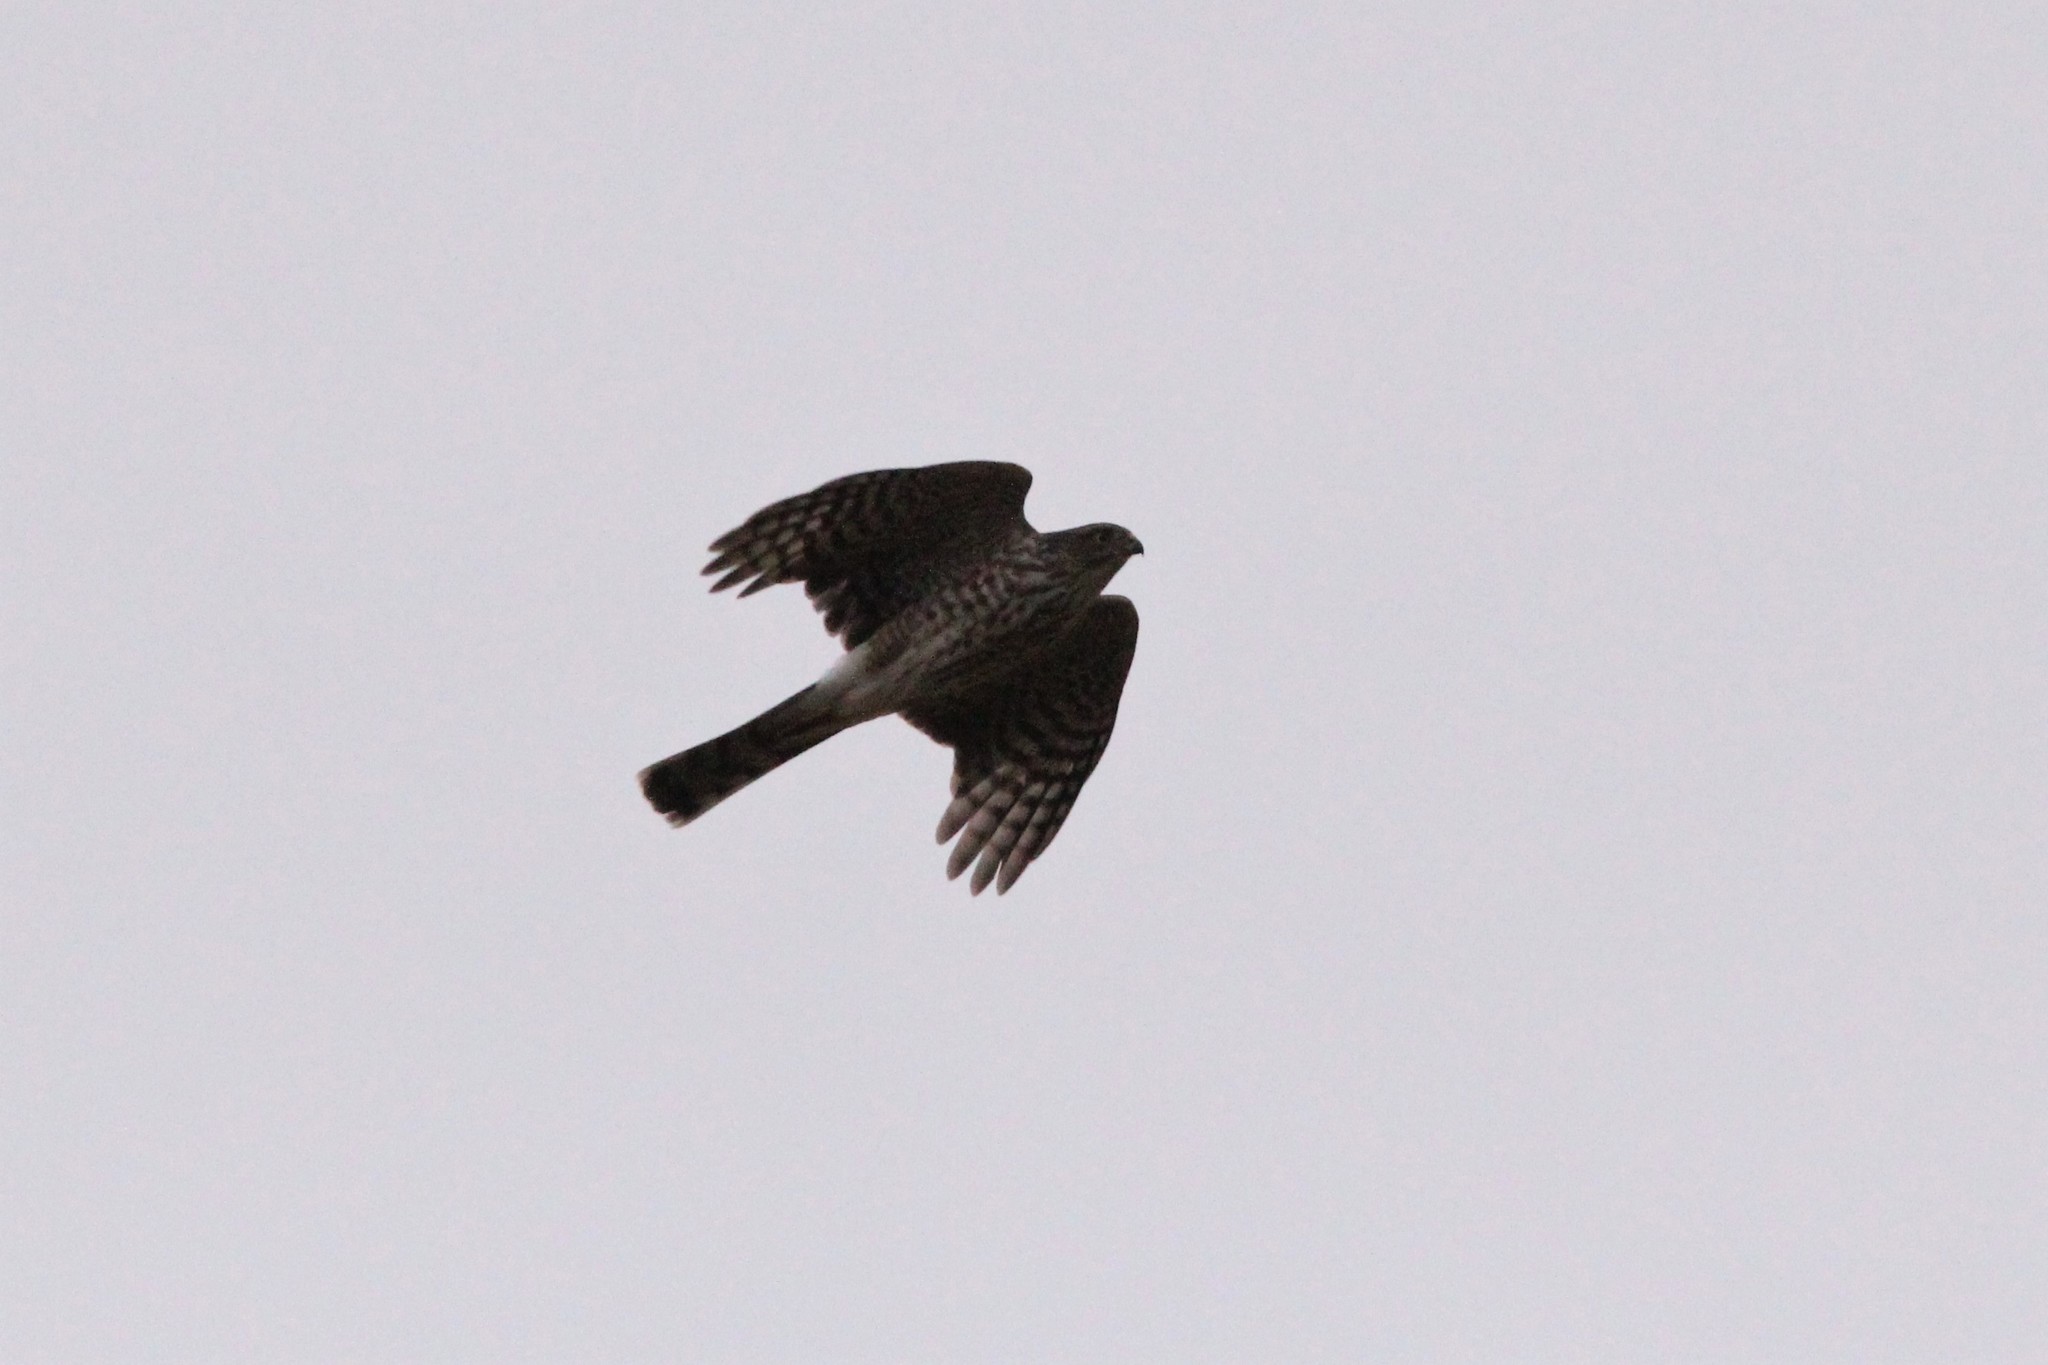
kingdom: Animalia
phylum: Chordata
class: Aves
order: Accipitriformes
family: Accipitridae
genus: Accipiter
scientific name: Accipiter striatus
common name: Sharp-shinned hawk
